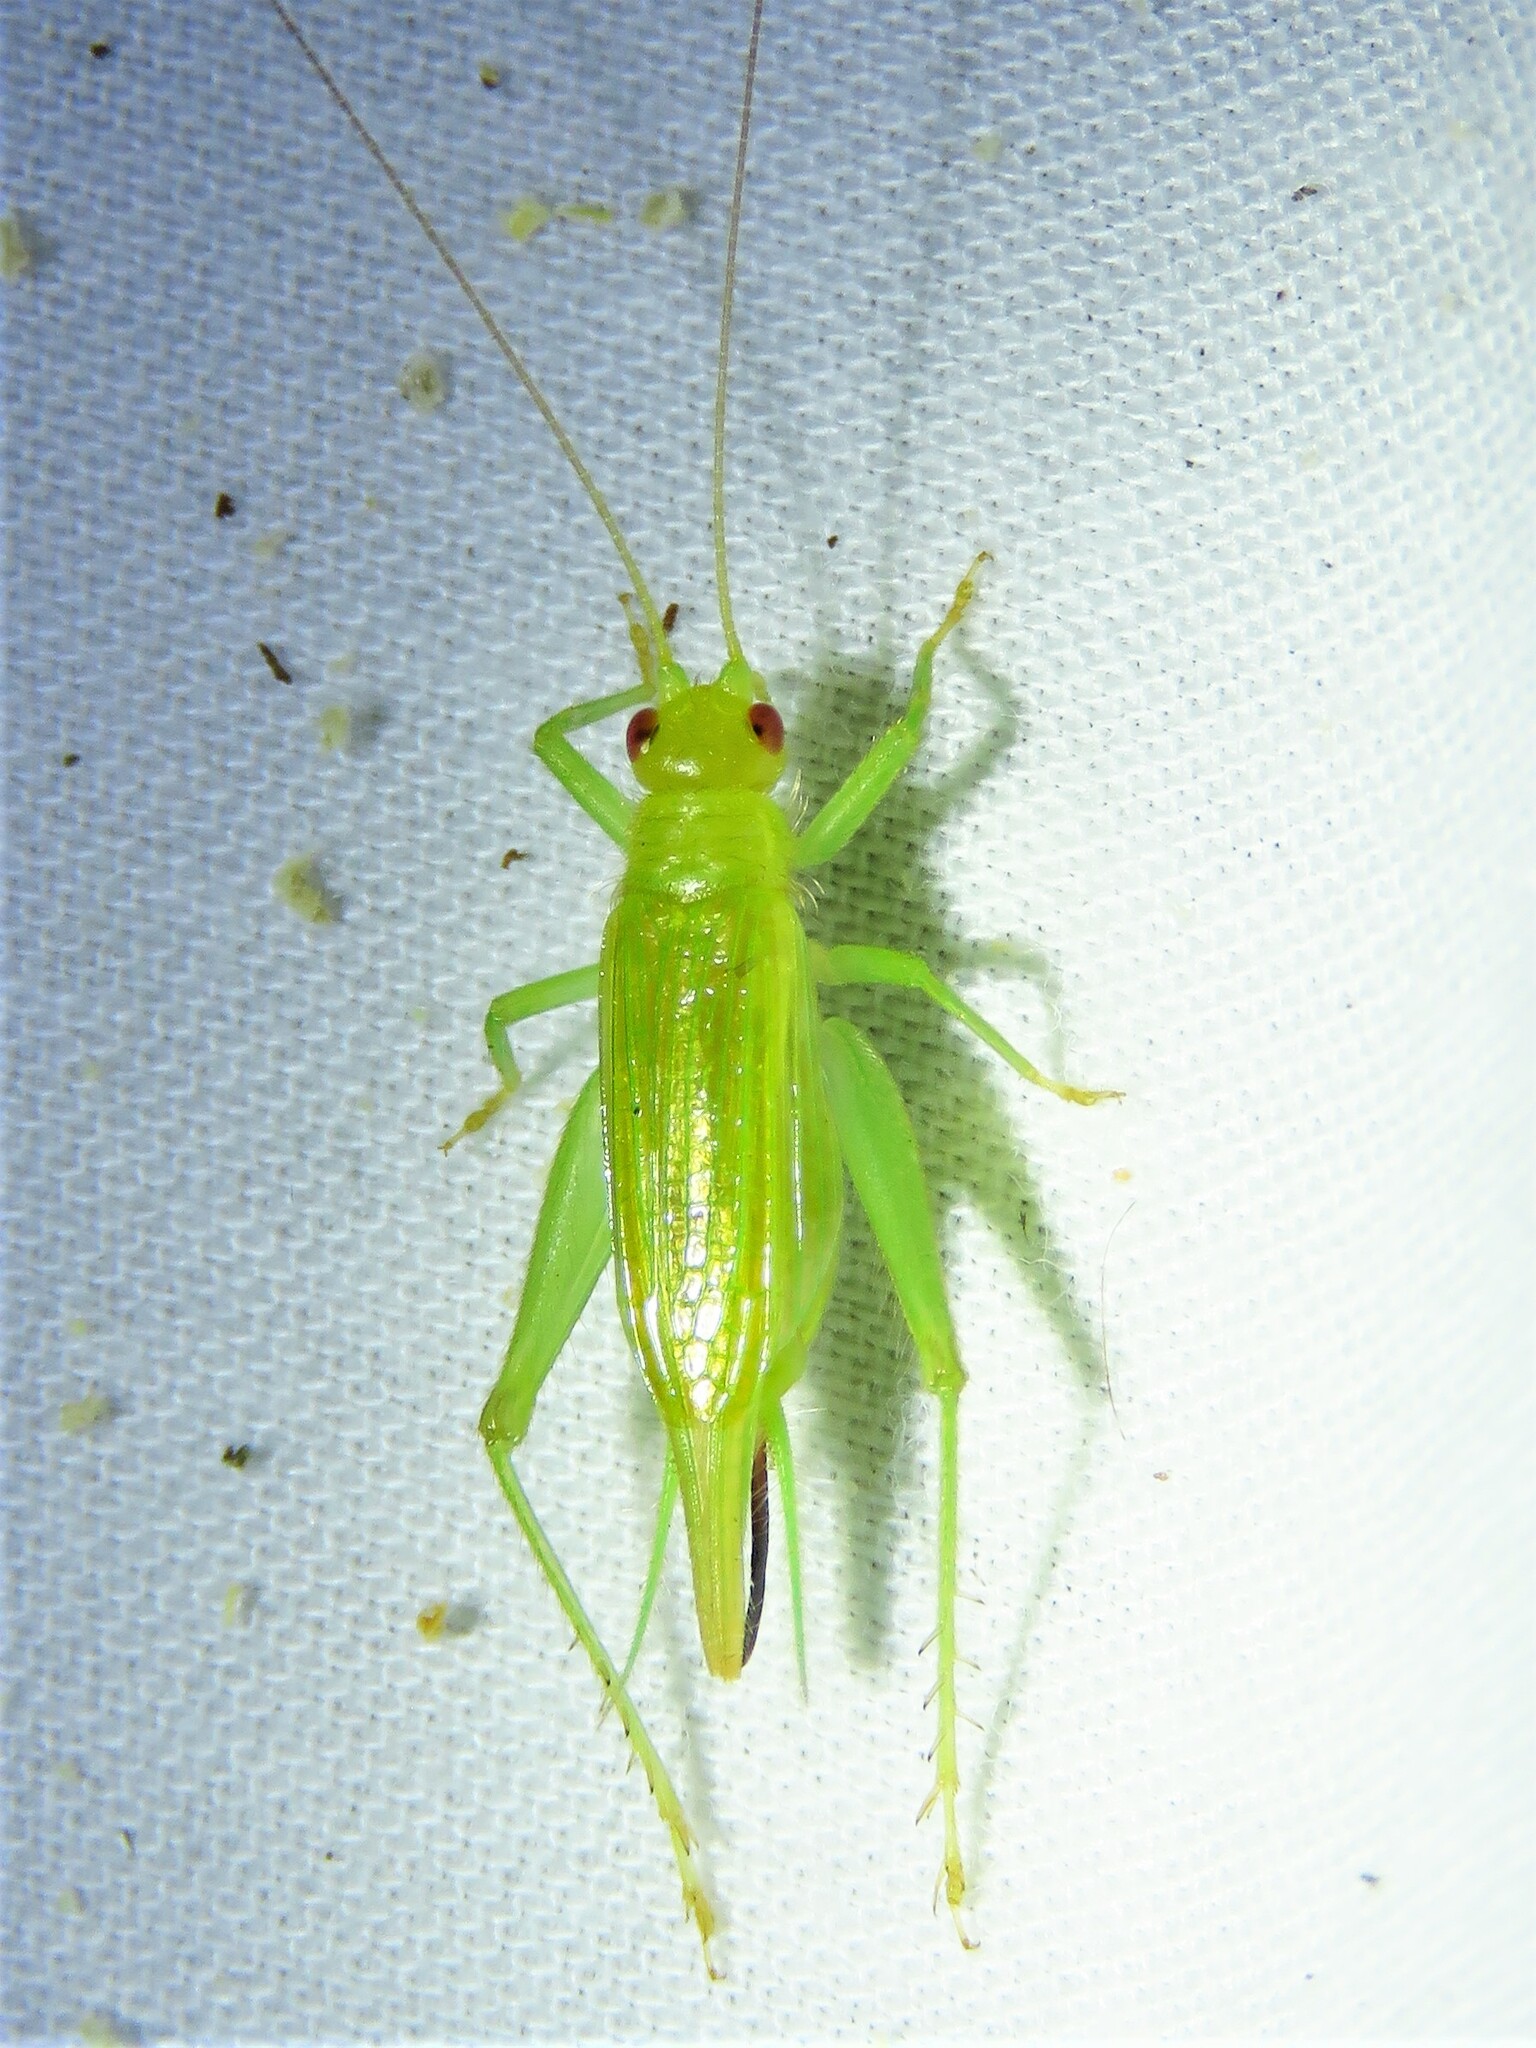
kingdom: Animalia
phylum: Arthropoda
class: Insecta
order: Orthoptera
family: Trigonidiidae
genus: Cyrtoxipha
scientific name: Cyrtoxipha columbiana
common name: Columbian trig
